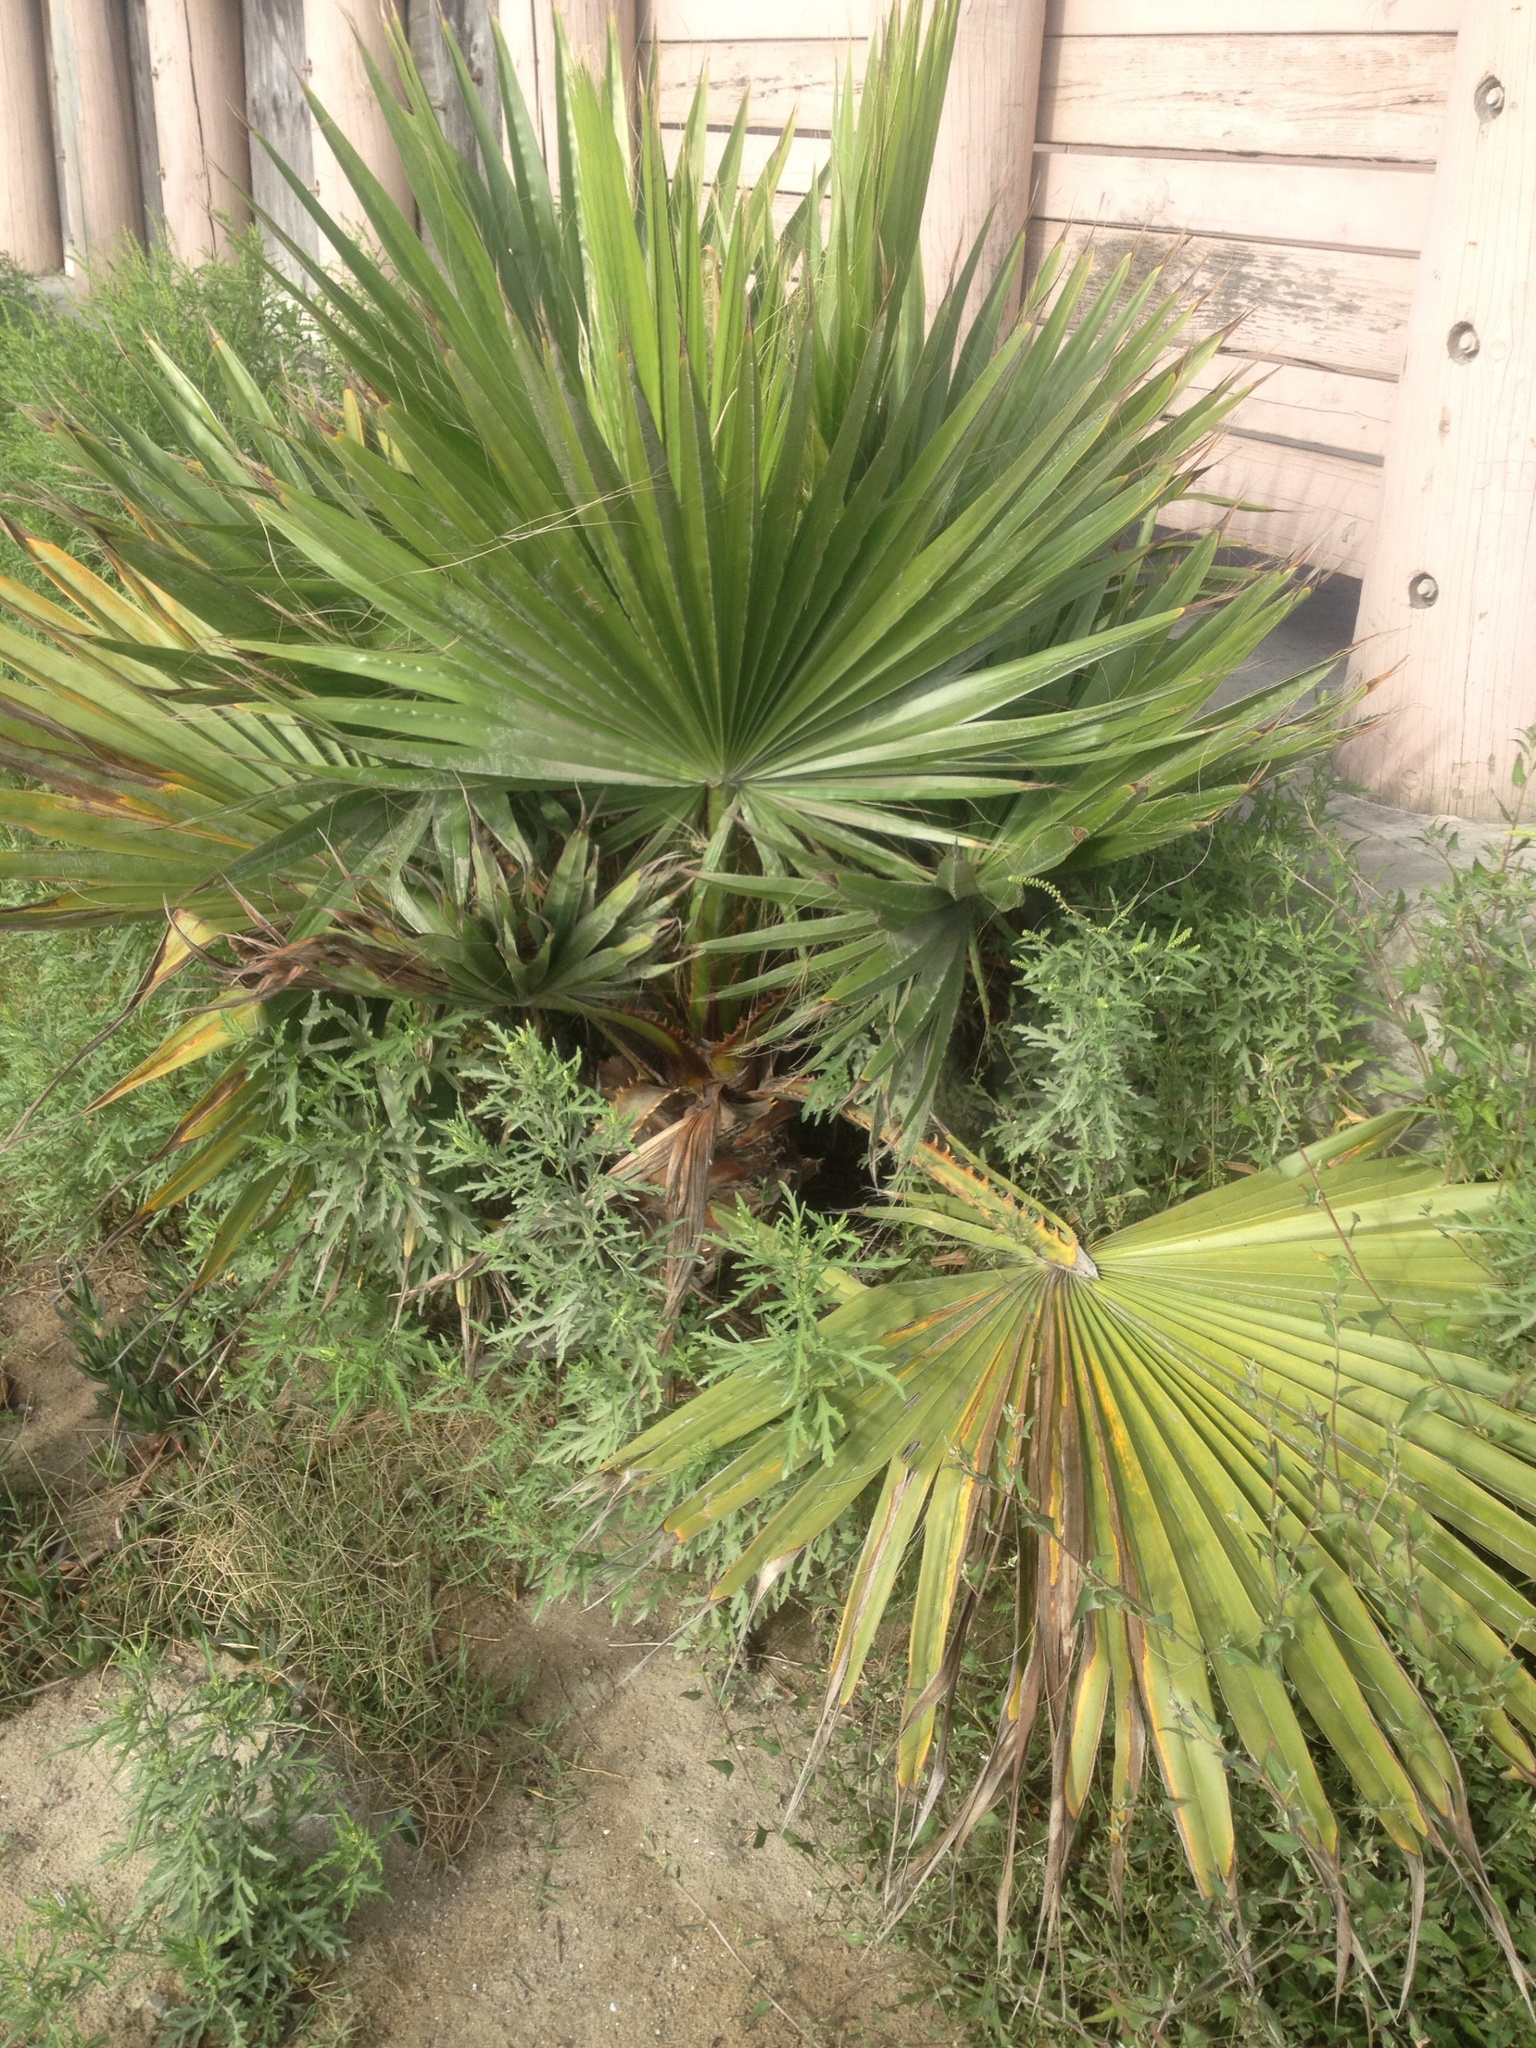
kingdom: Plantae
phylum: Tracheophyta
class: Liliopsida
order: Arecales
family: Arecaceae
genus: Washingtonia
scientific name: Washingtonia robusta
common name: Mexican fan palm
